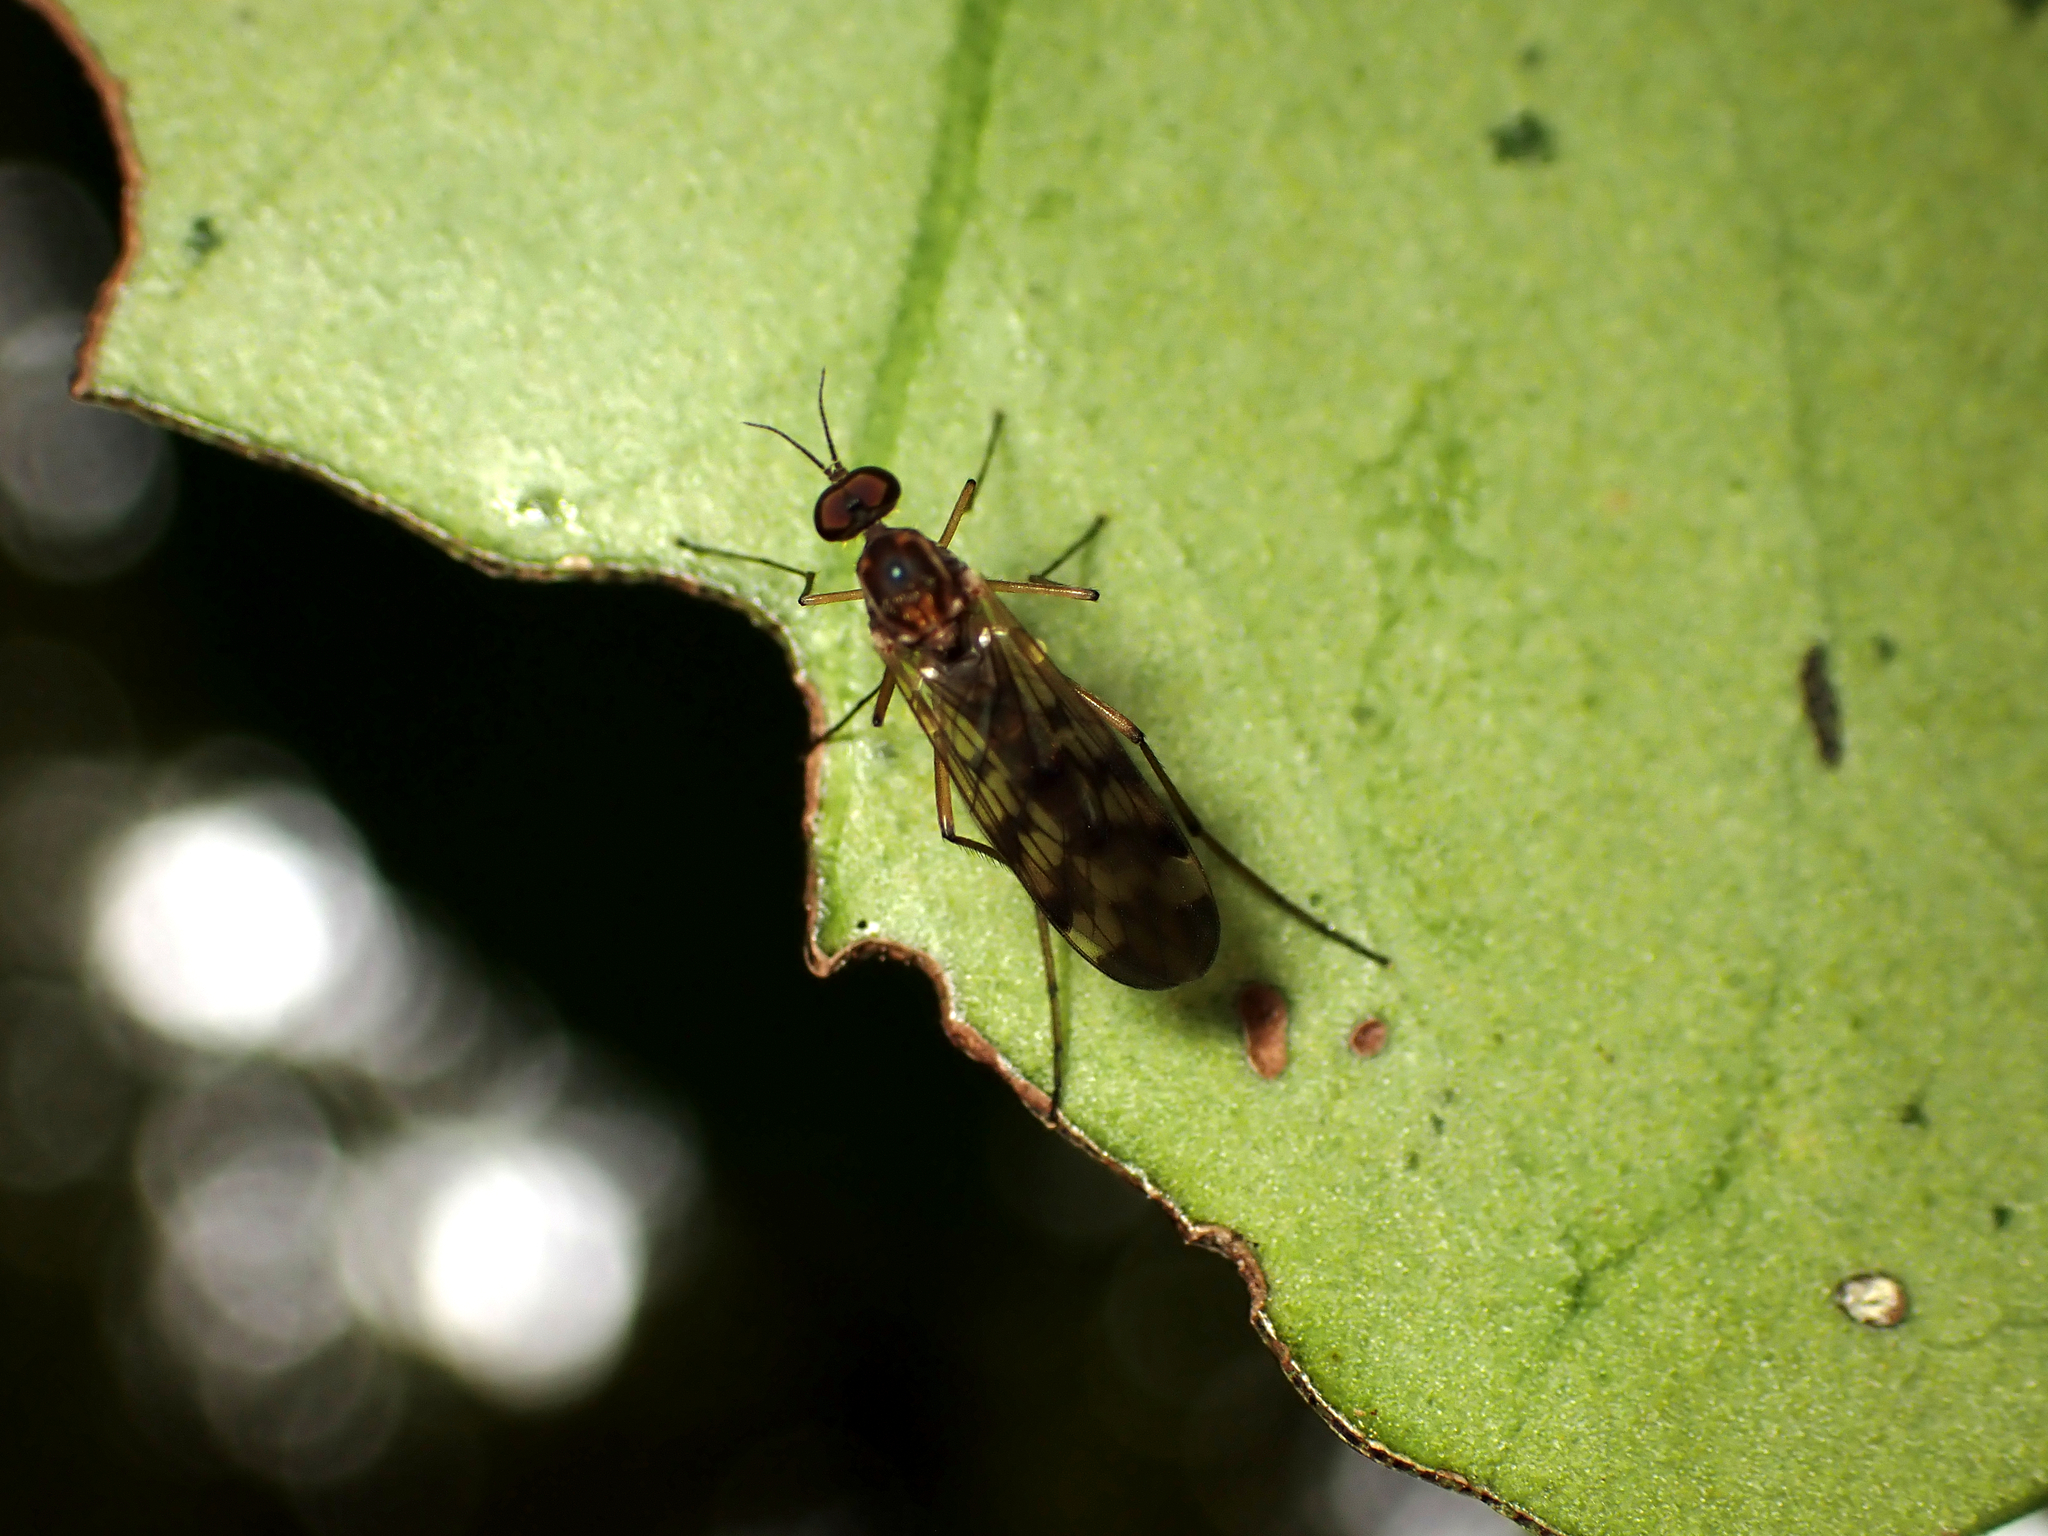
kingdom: Animalia
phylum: Arthropoda
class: Insecta
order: Diptera
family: Anisopodidae
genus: Sylvicola
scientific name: Sylvicola undulatus
